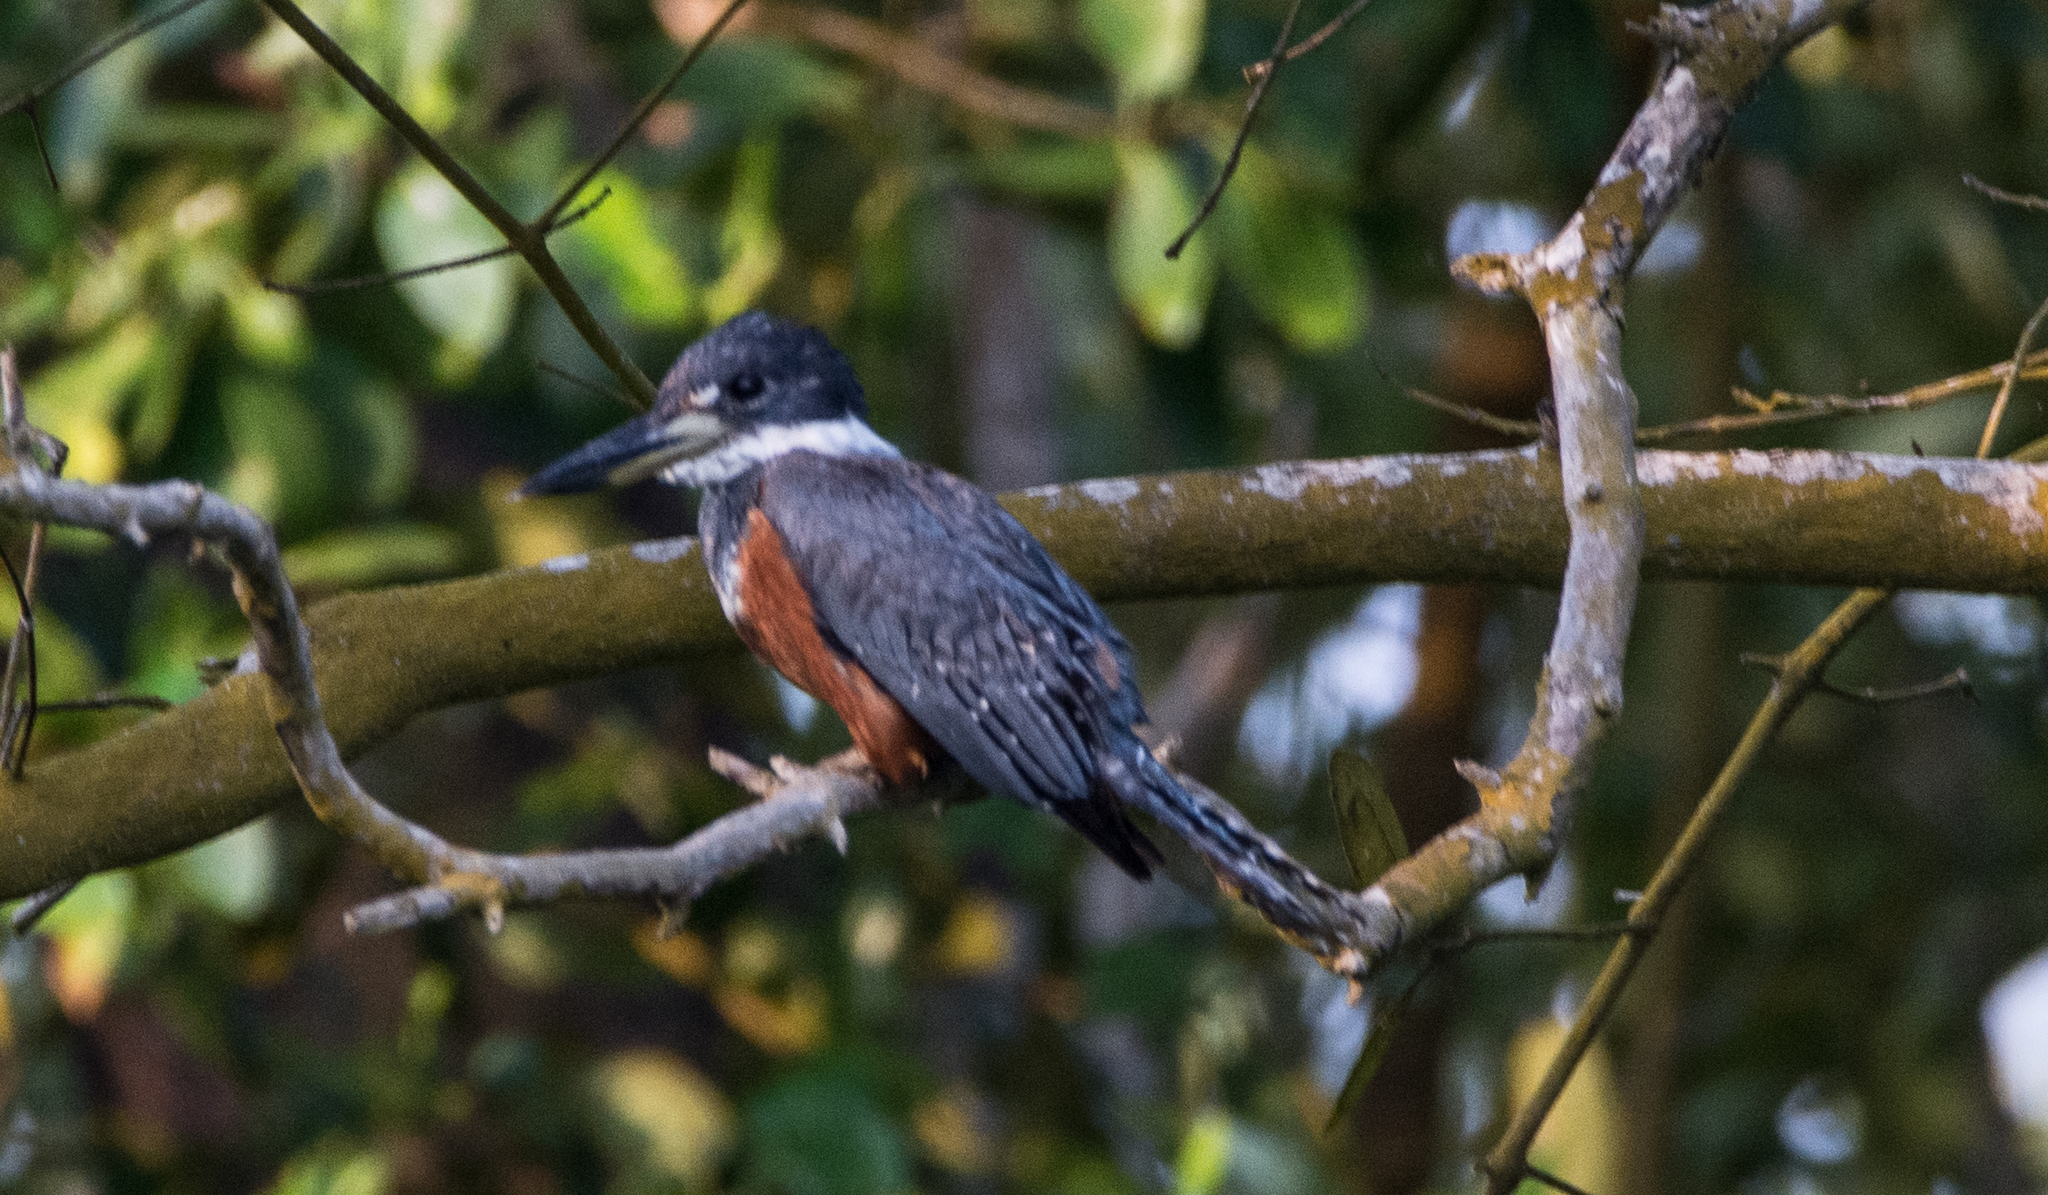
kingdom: Animalia
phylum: Chordata
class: Aves
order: Coraciiformes
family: Alcedinidae
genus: Megaceryle
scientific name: Megaceryle torquata
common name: Ringed kingfisher
